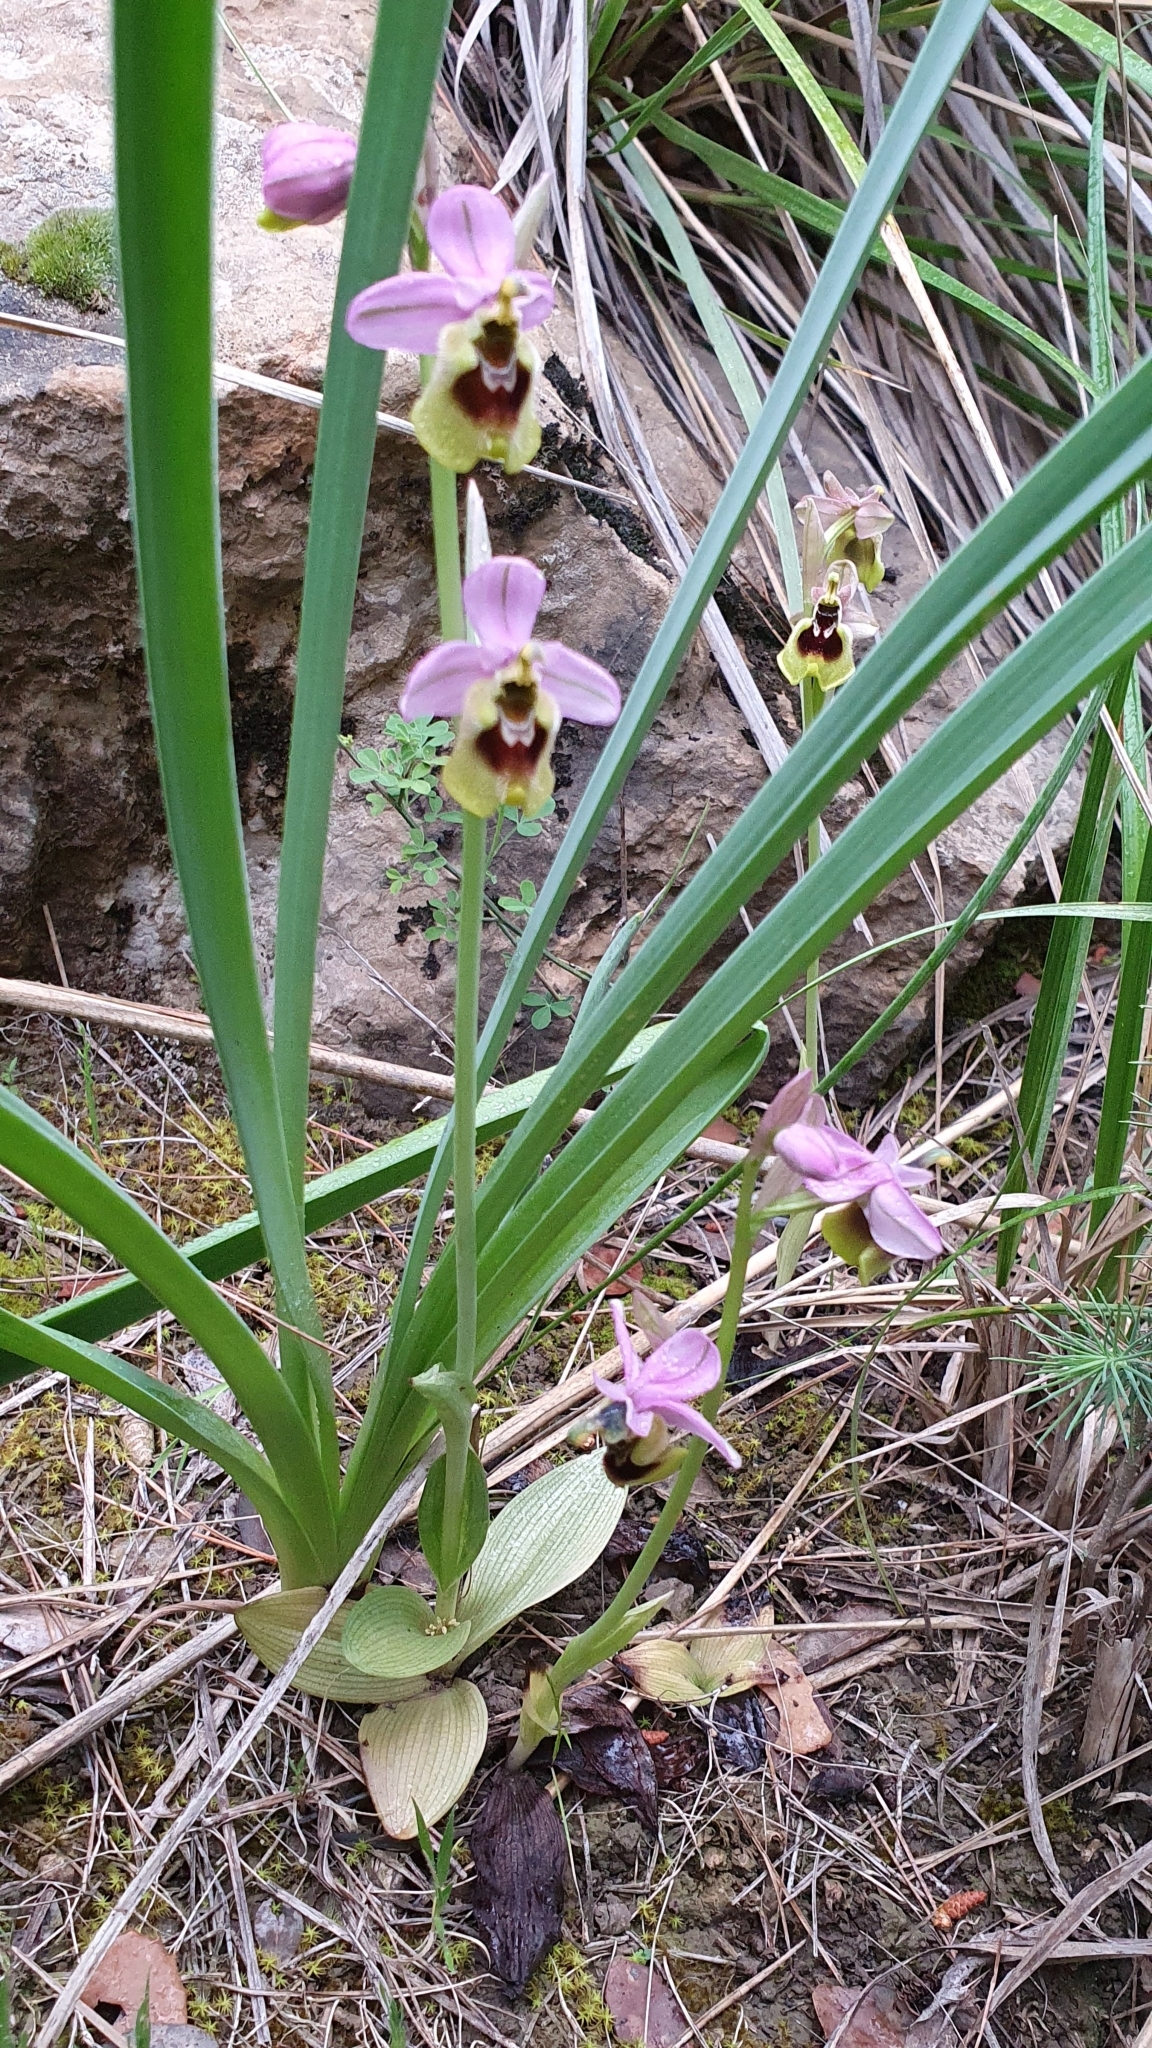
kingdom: Plantae
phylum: Tracheophyta
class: Liliopsida
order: Asparagales
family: Orchidaceae
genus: Ophrys
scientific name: Ophrys tenthredinifera
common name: Sawfly orchid
